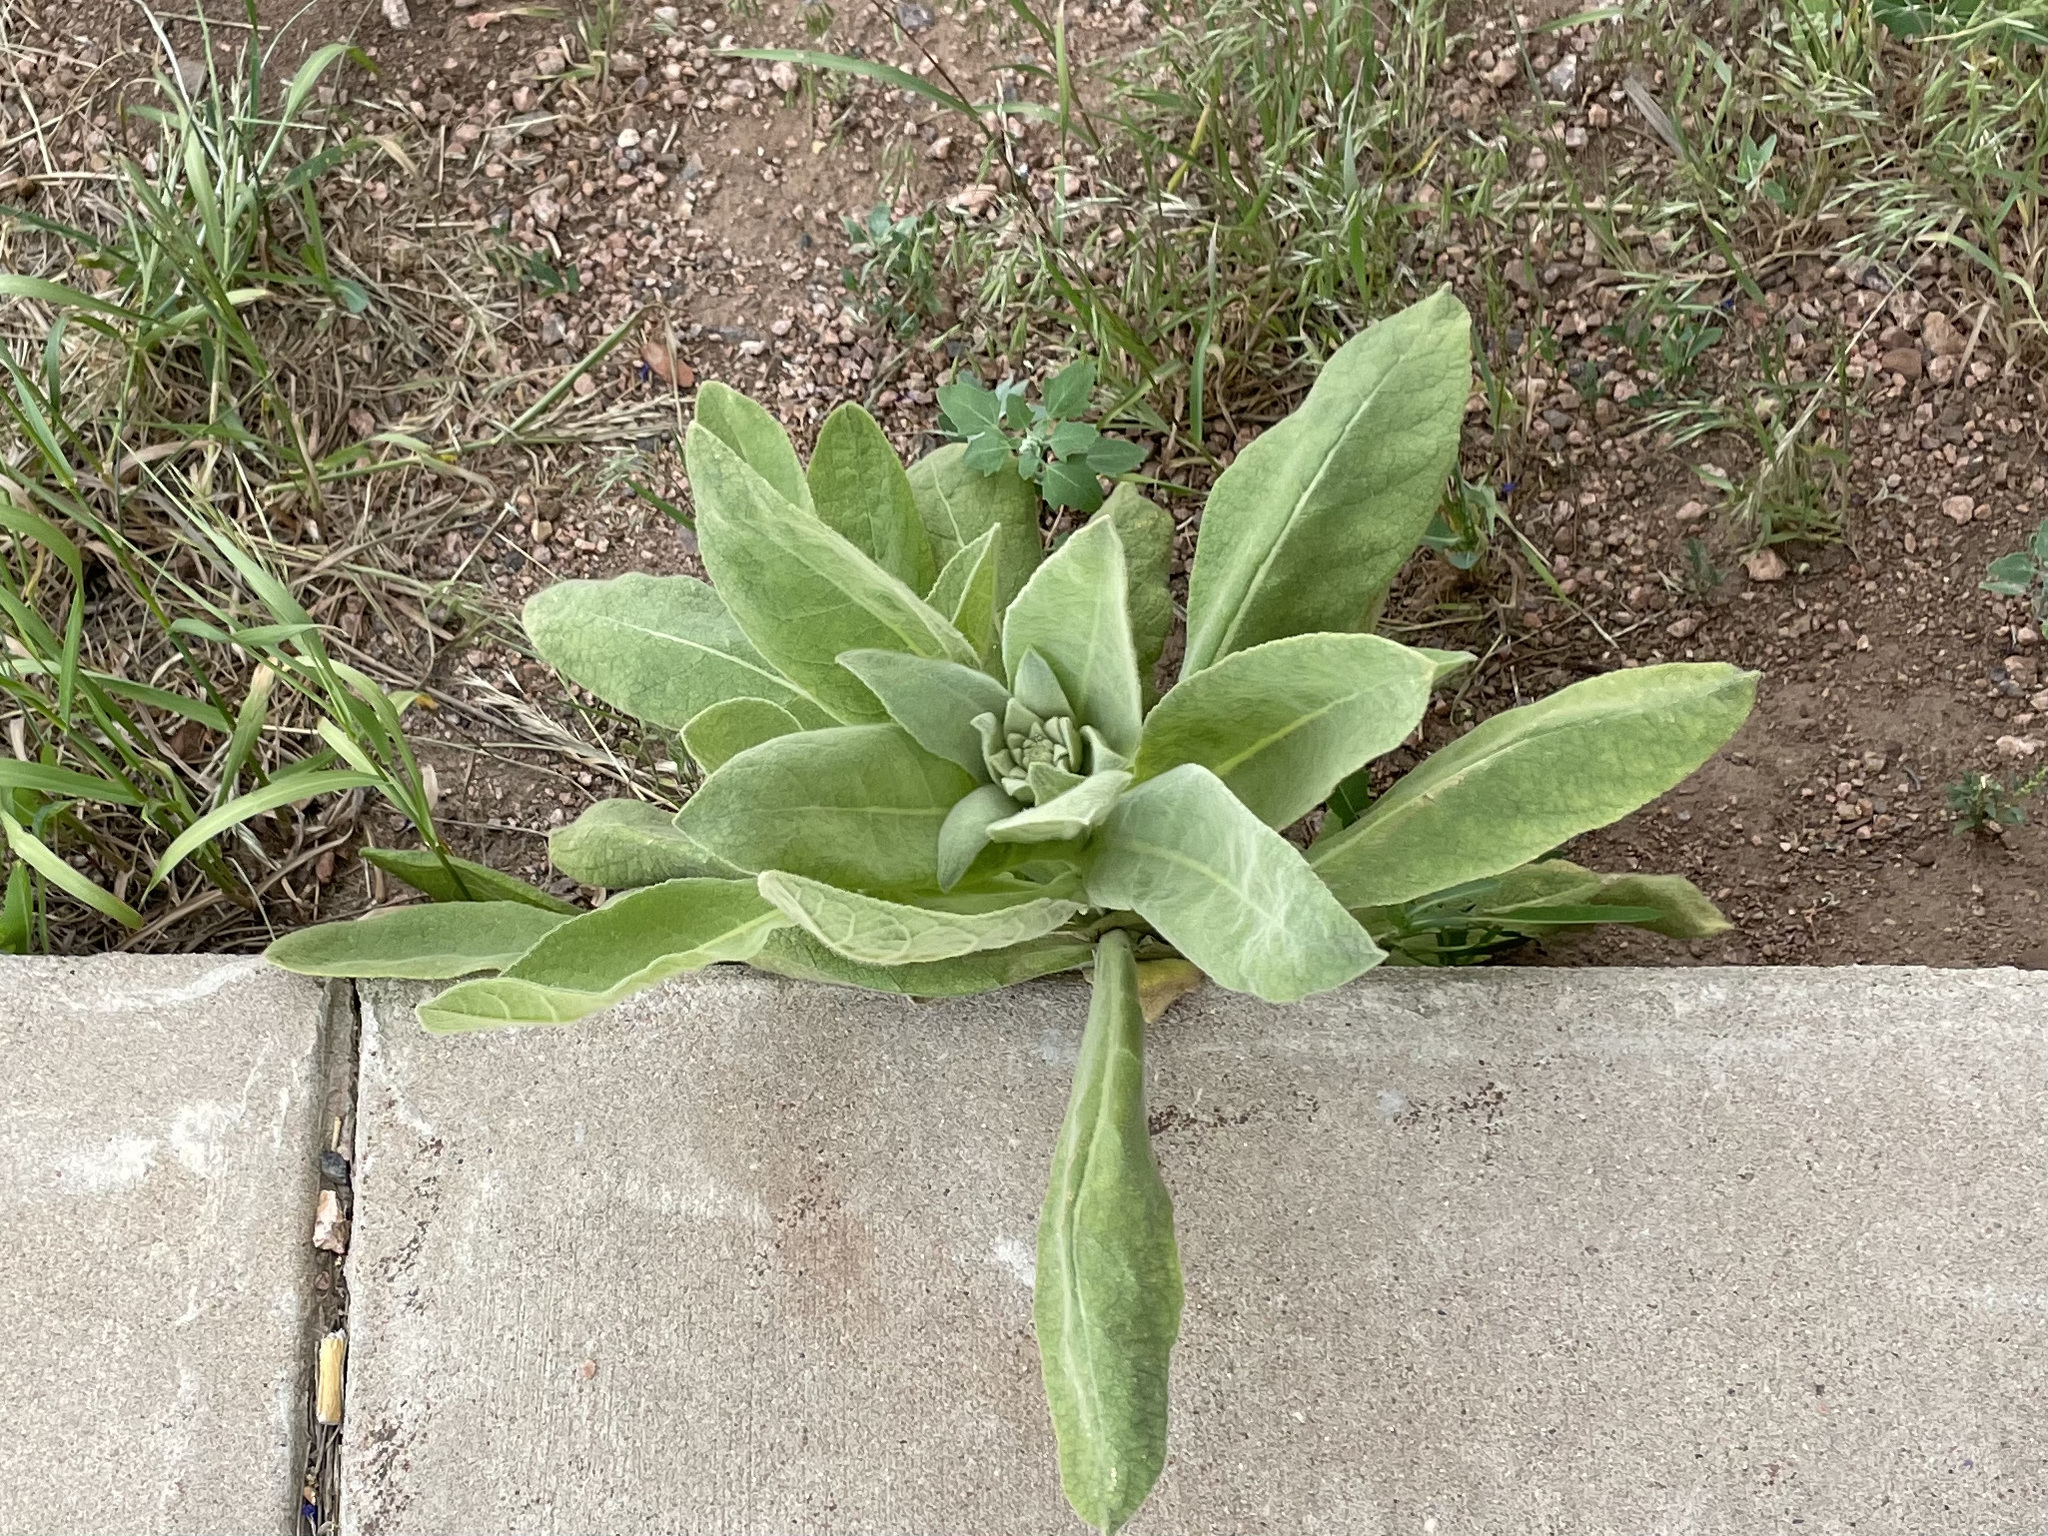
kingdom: Plantae
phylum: Tracheophyta
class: Magnoliopsida
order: Lamiales
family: Scrophulariaceae
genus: Verbascum
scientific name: Verbascum thapsus
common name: Common mullein
